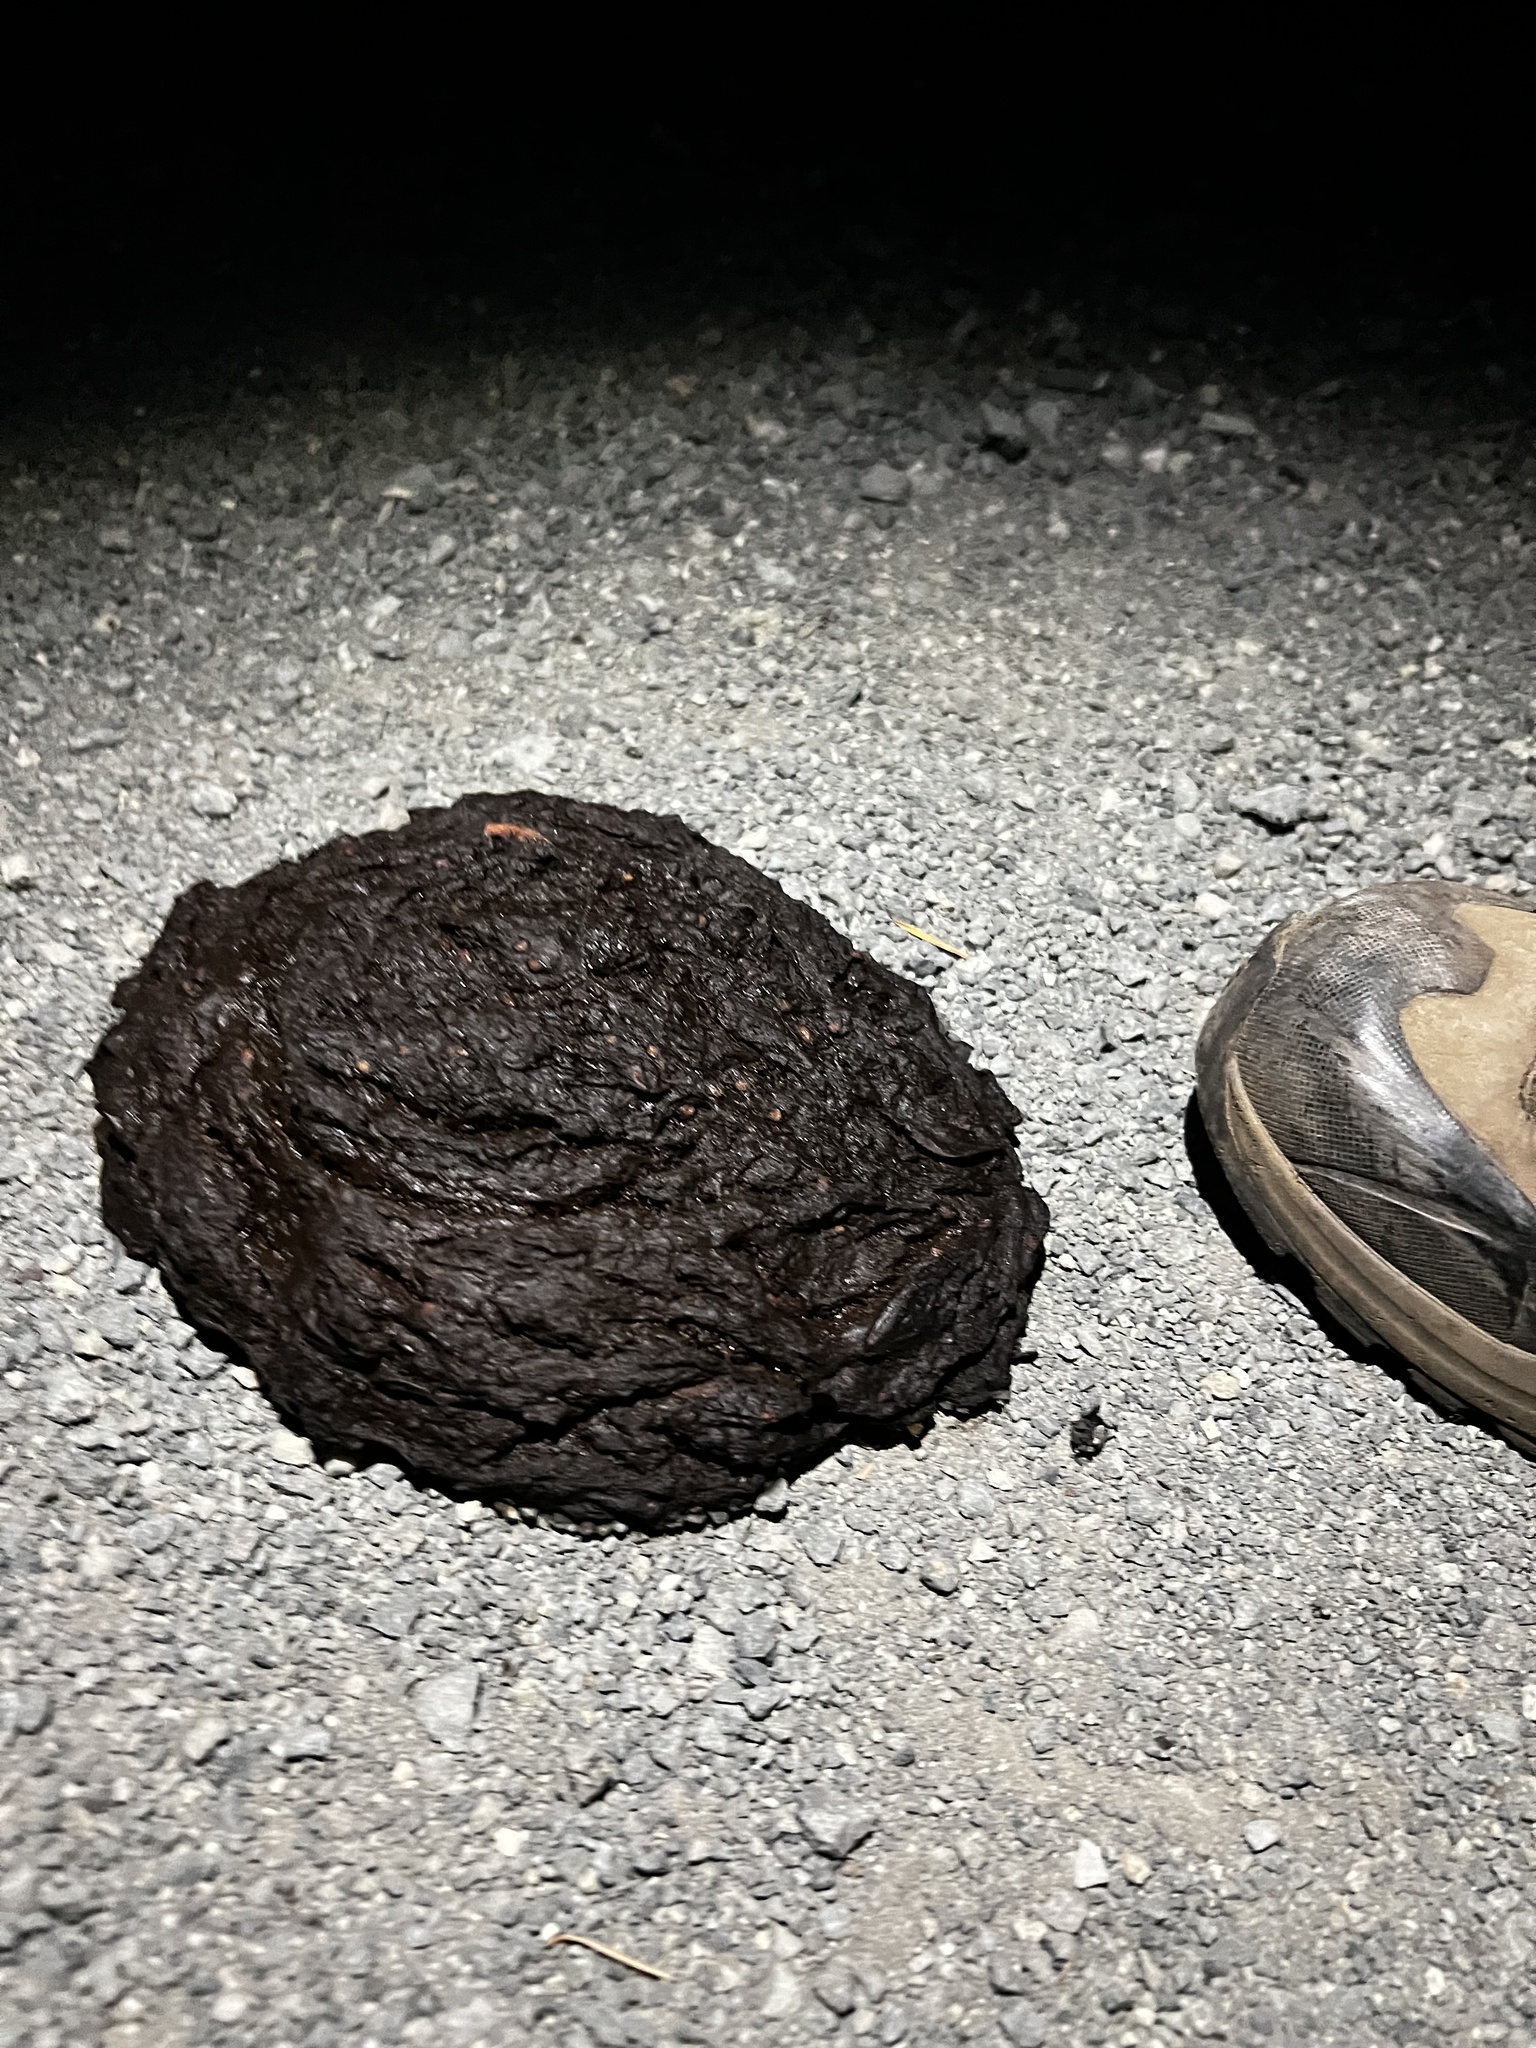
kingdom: Animalia
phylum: Chordata
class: Mammalia
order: Carnivora
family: Ursidae
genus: Ursus
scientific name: Ursus americanus
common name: American black bear
